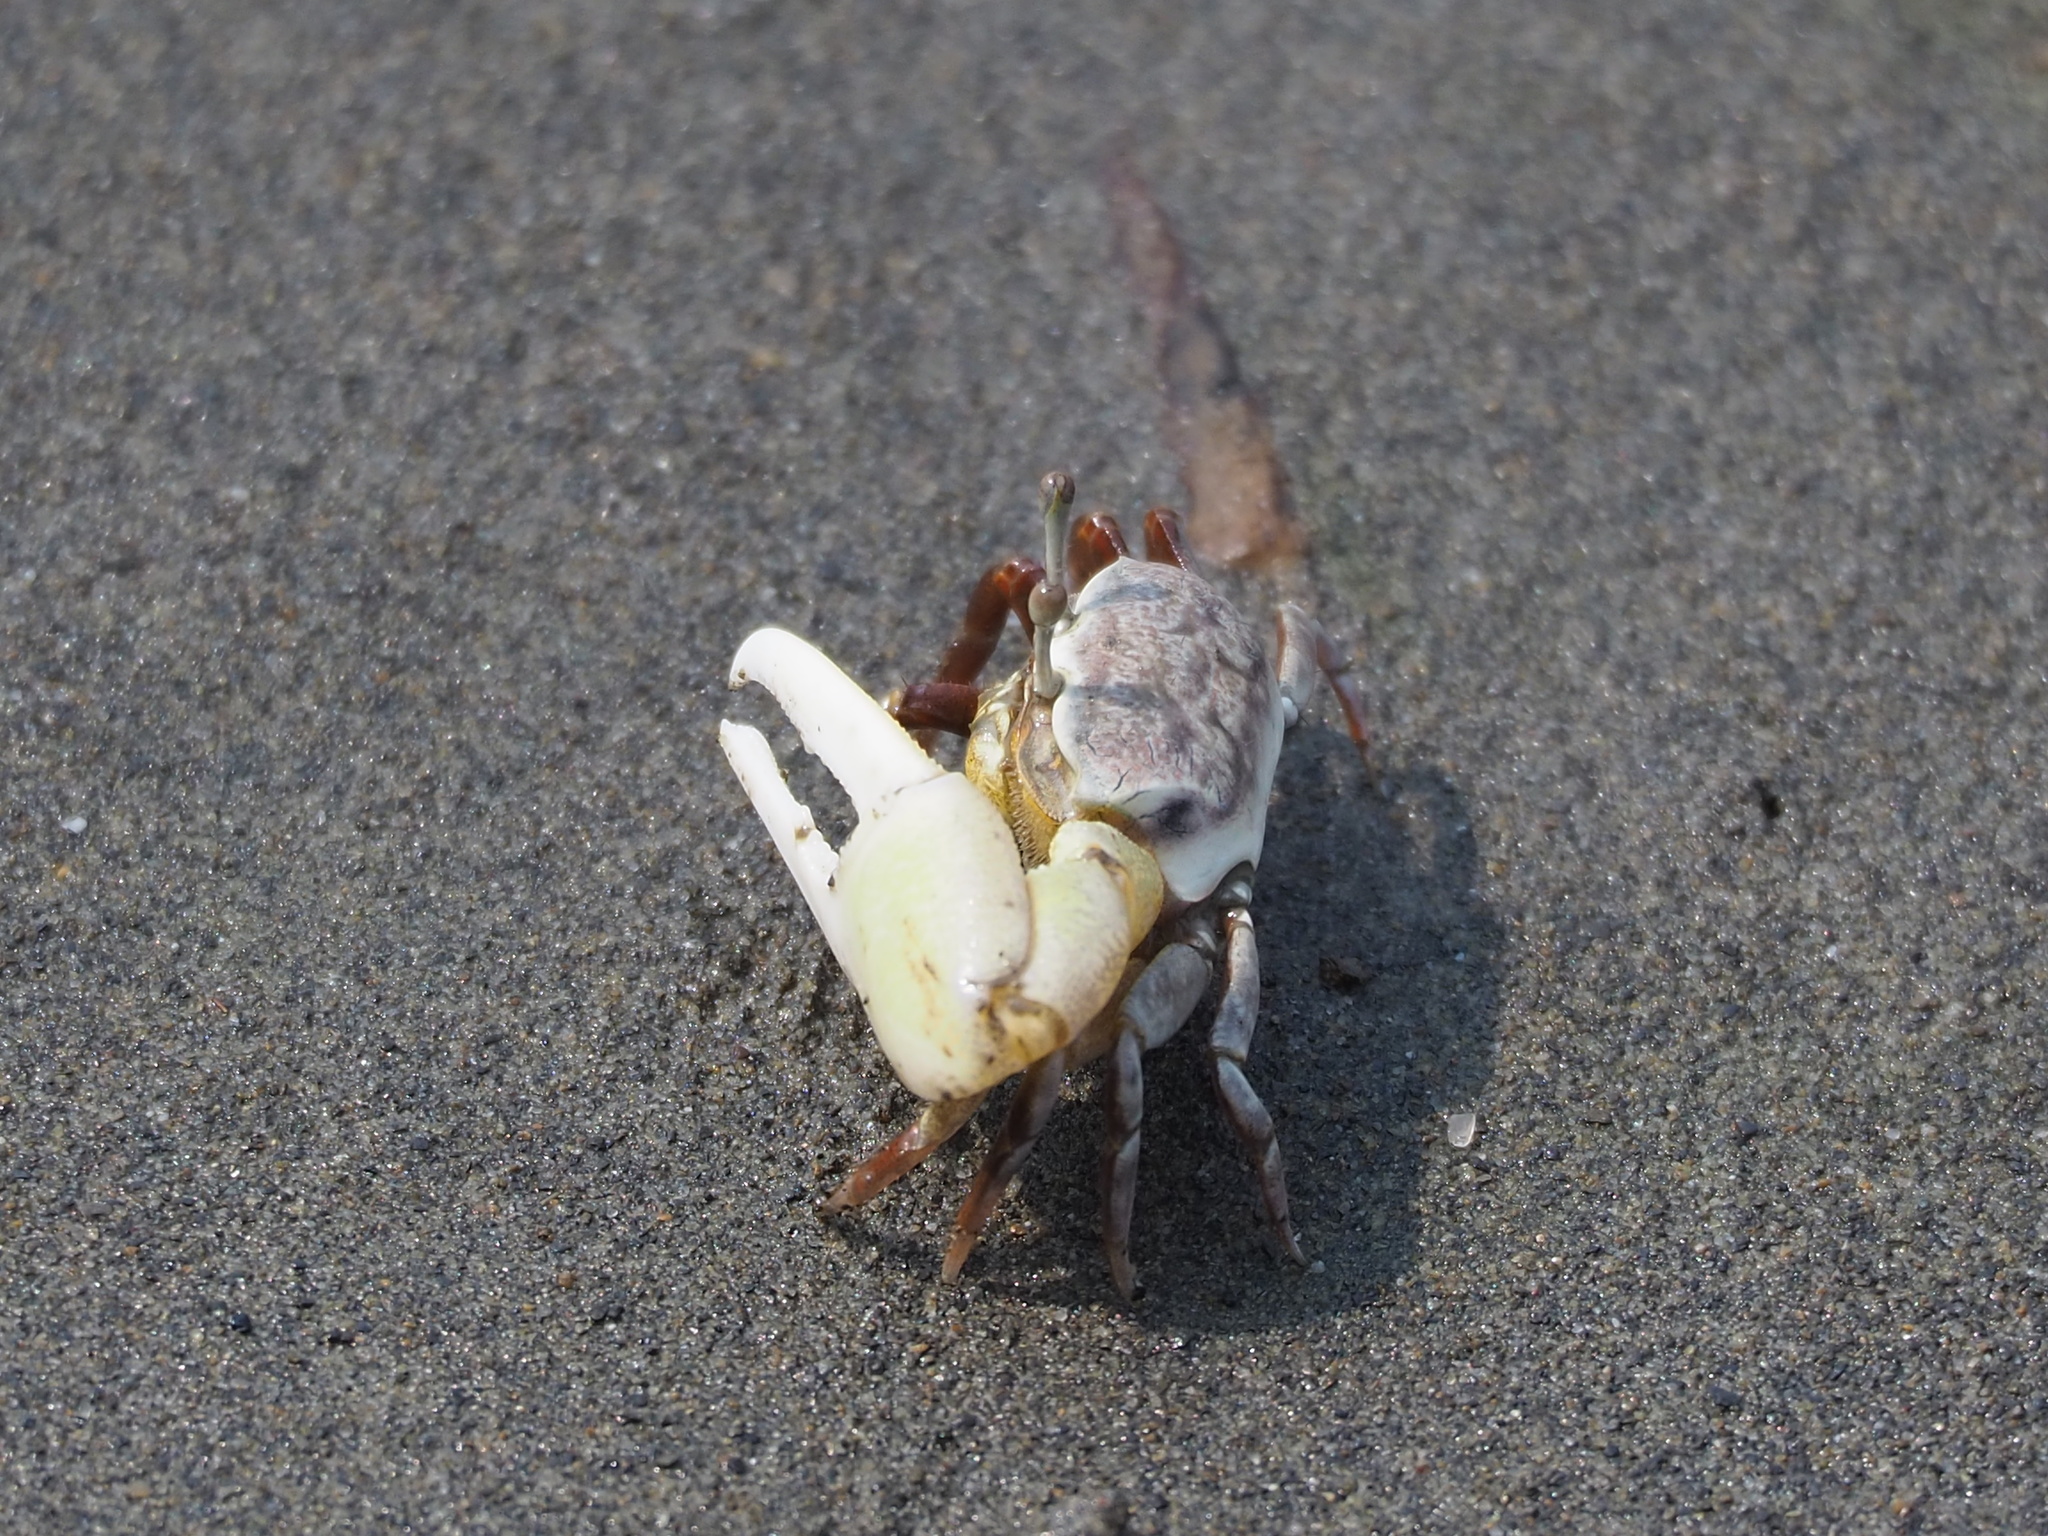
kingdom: Animalia
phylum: Arthropoda
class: Malacostraca
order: Decapoda
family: Ocypodidae
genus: Austruca
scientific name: Austruca lactea
